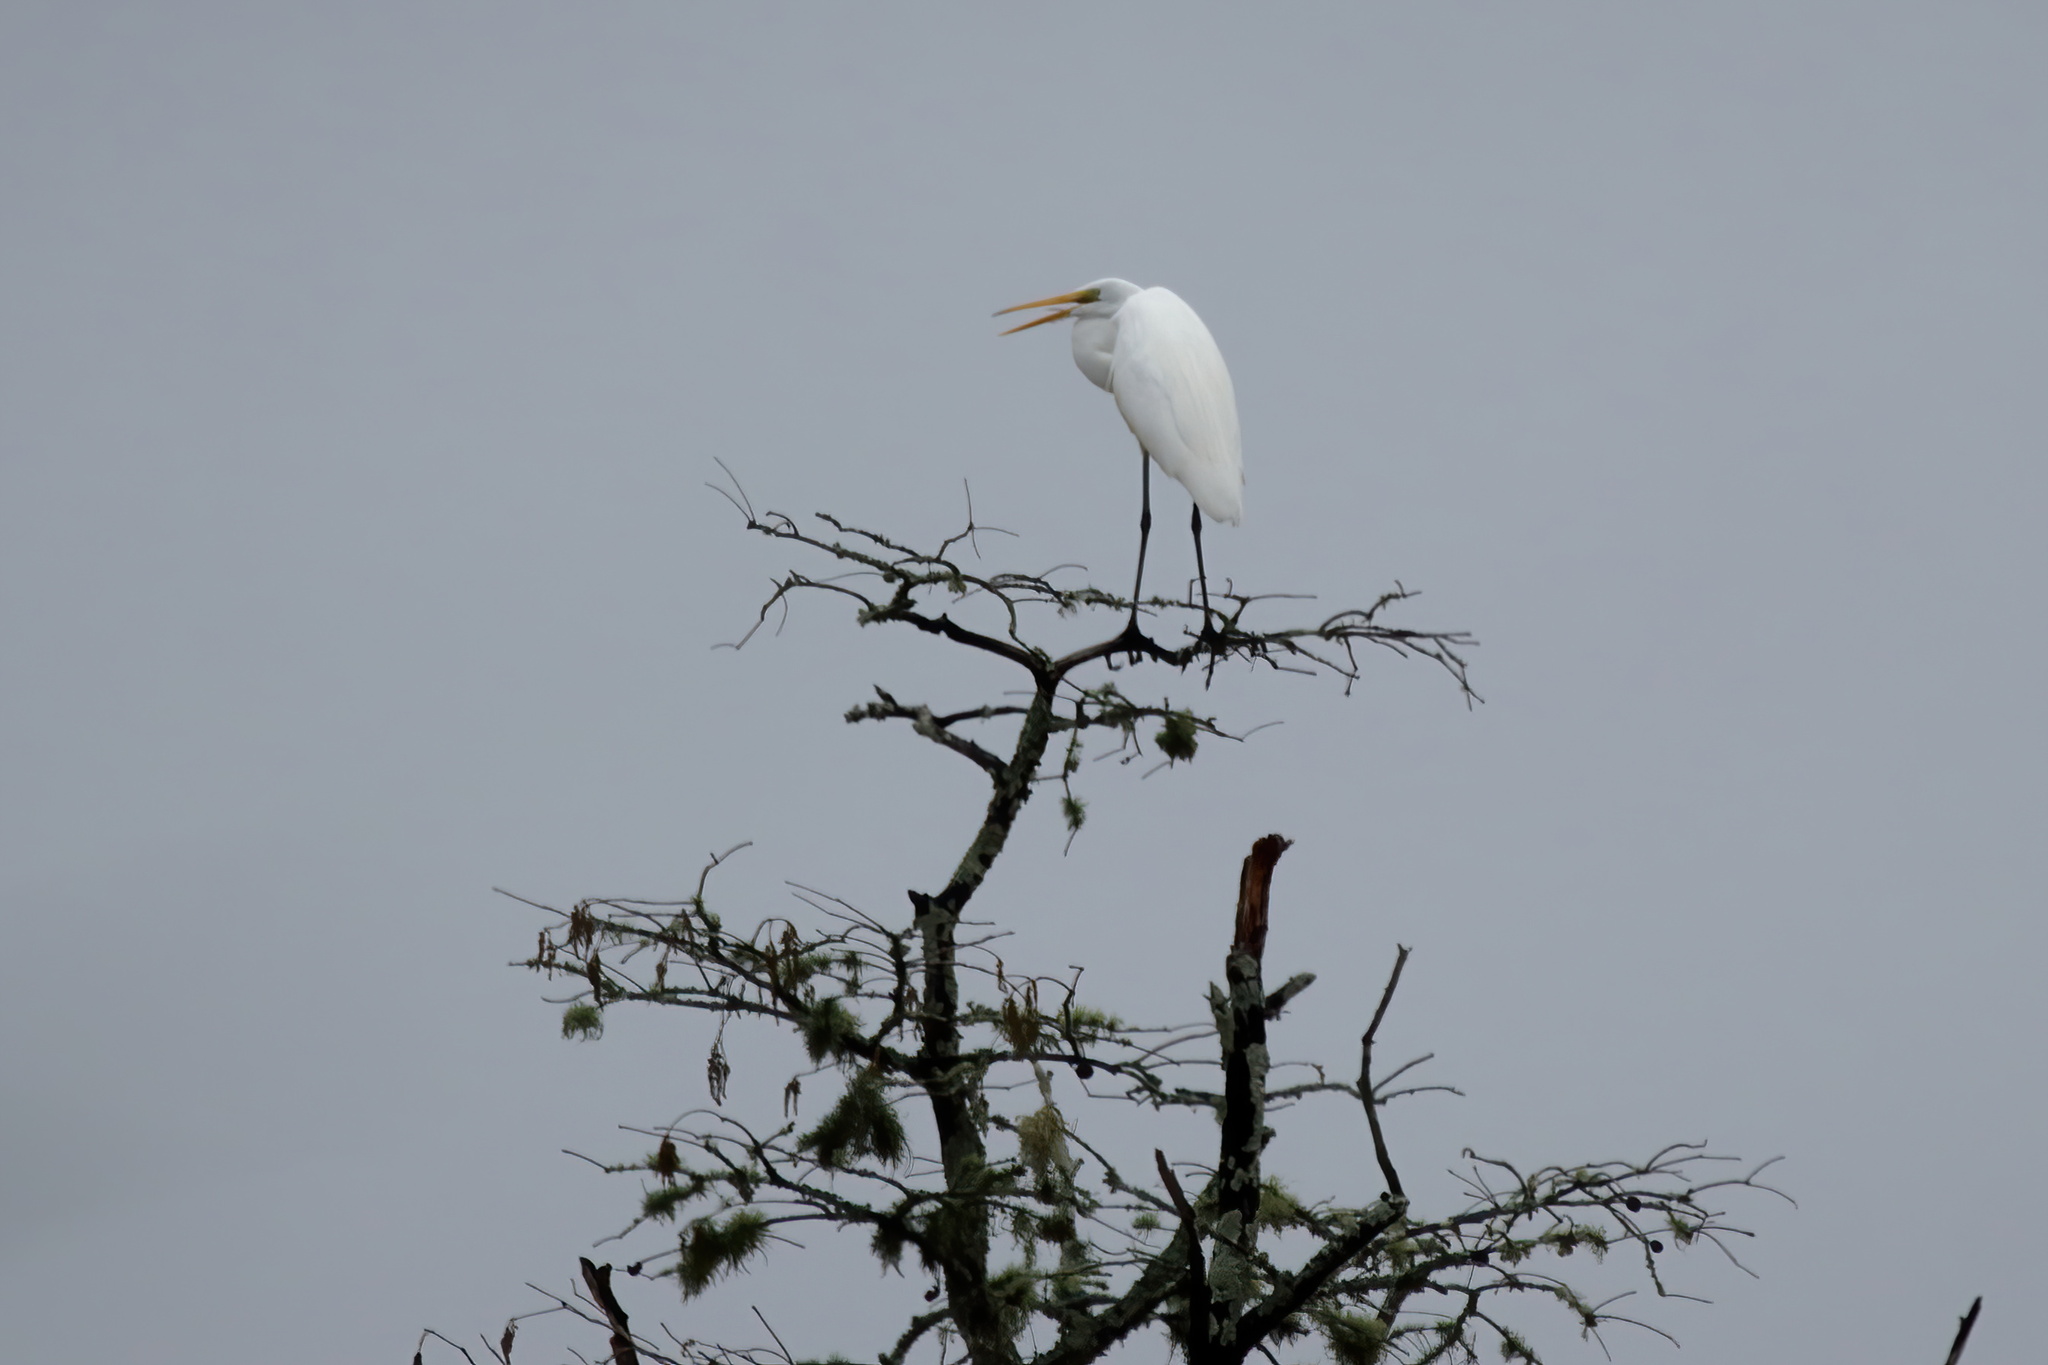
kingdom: Animalia
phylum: Chordata
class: Aves
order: Pelecaniformes
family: Ardeidae
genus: Ardea
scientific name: Ardea alba
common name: Great egret
